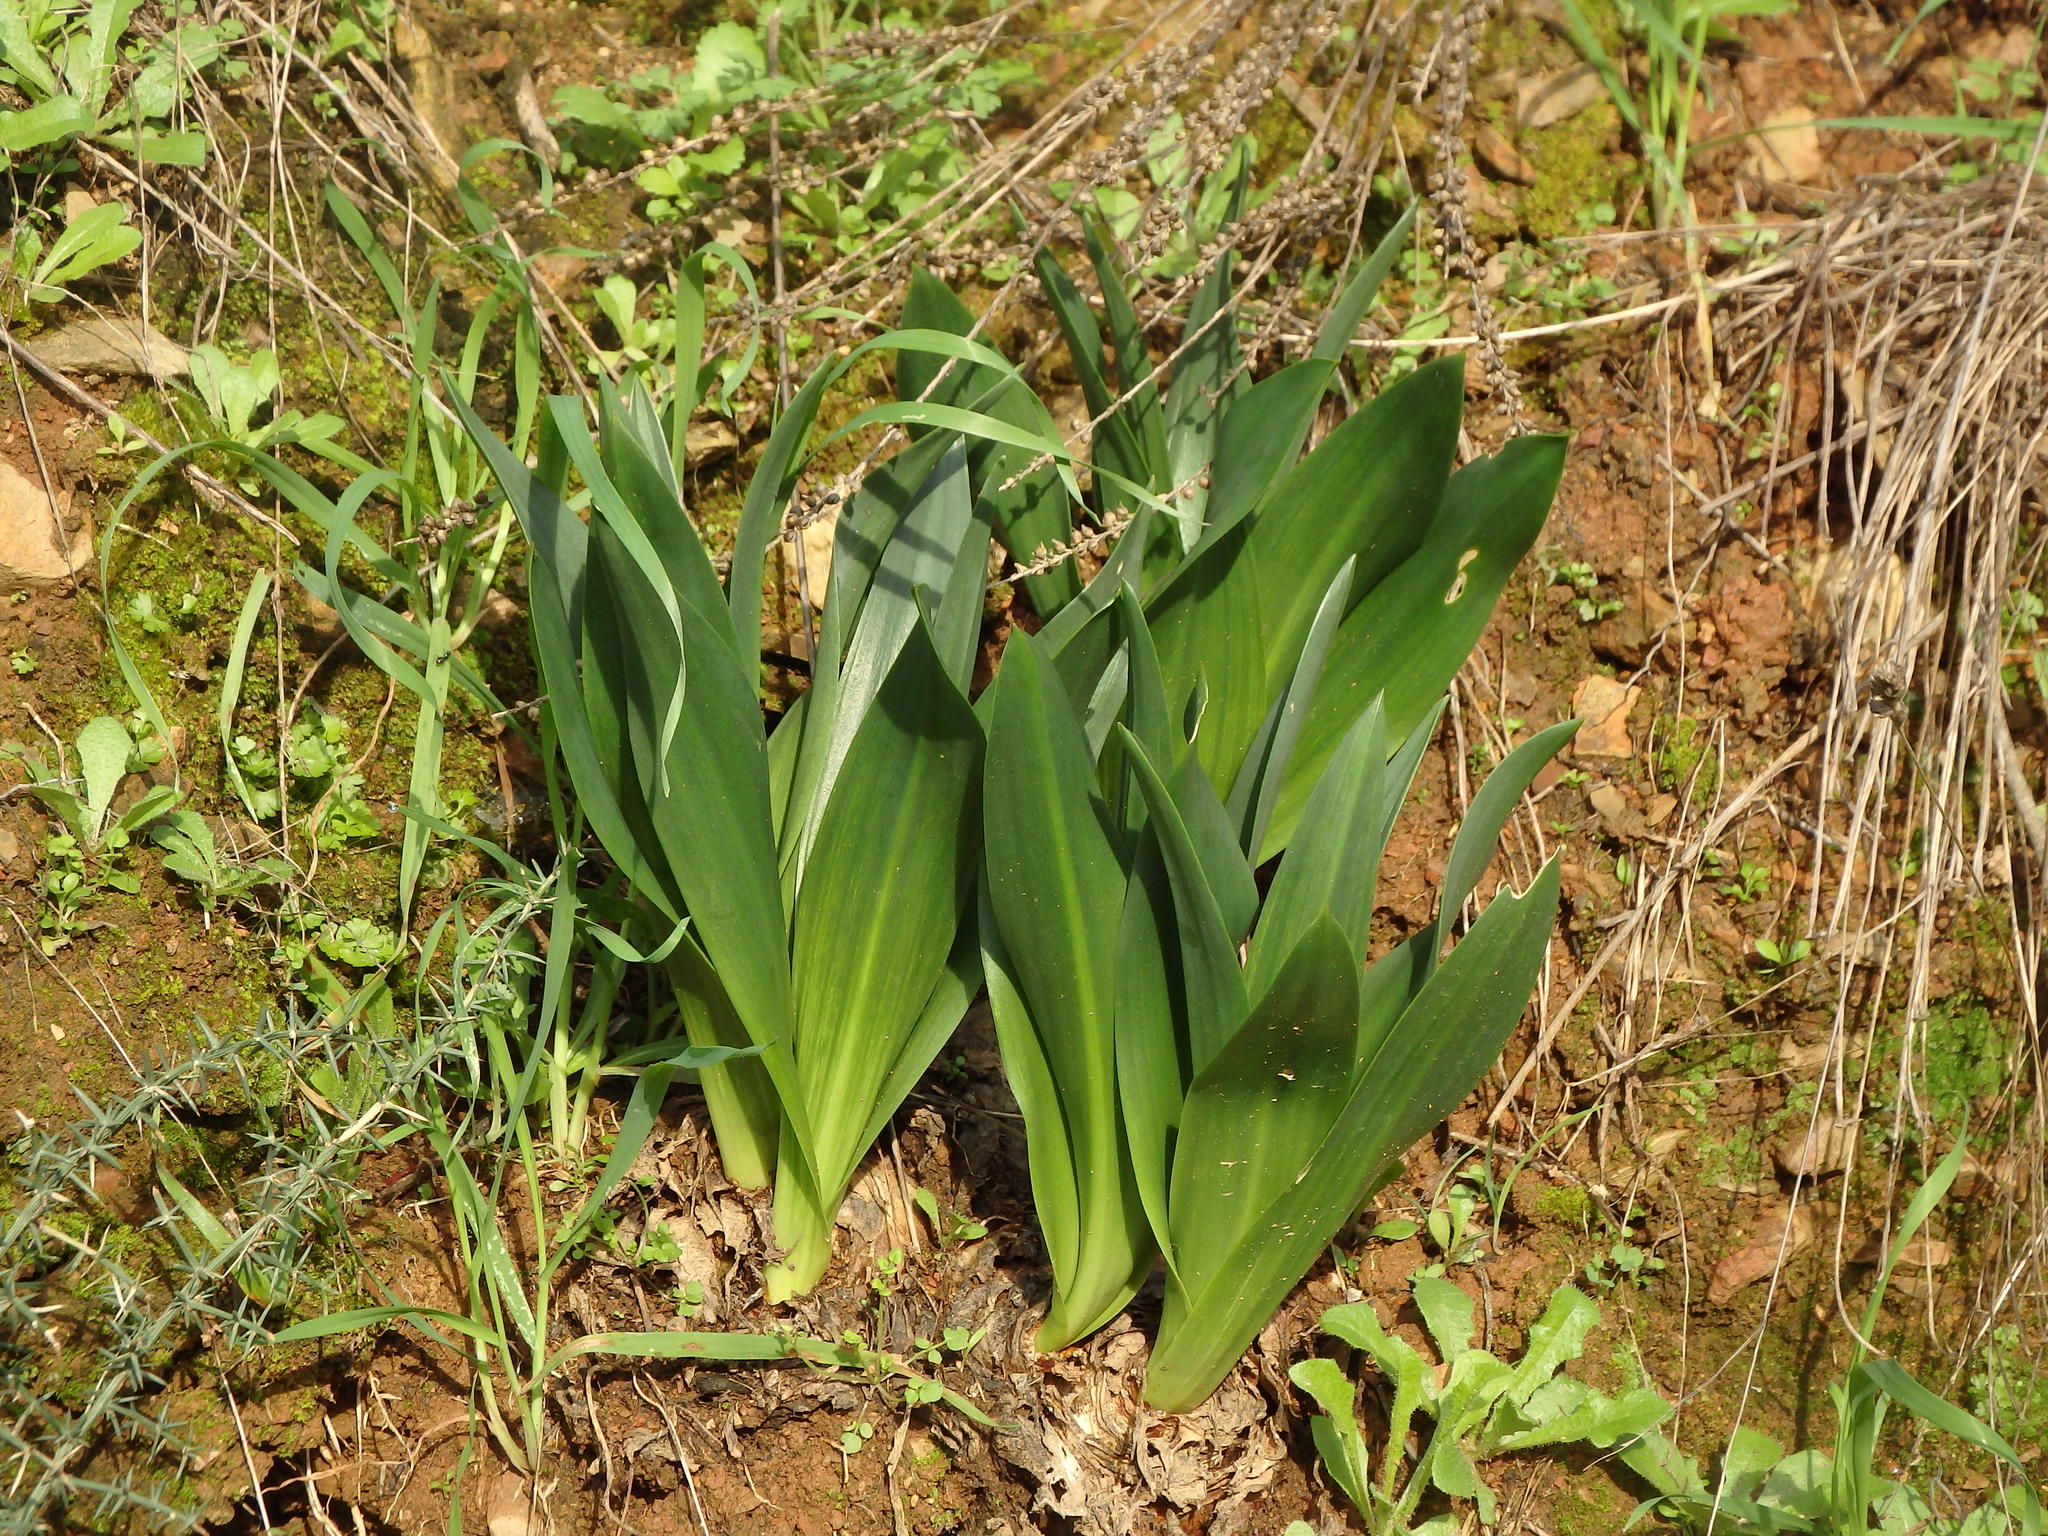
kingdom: Plantae
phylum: Tracheophyta
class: Liliopsida
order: Asparagales
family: Asparagaceae
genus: Drimia
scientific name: Drimia maritima
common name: Maritime squill
